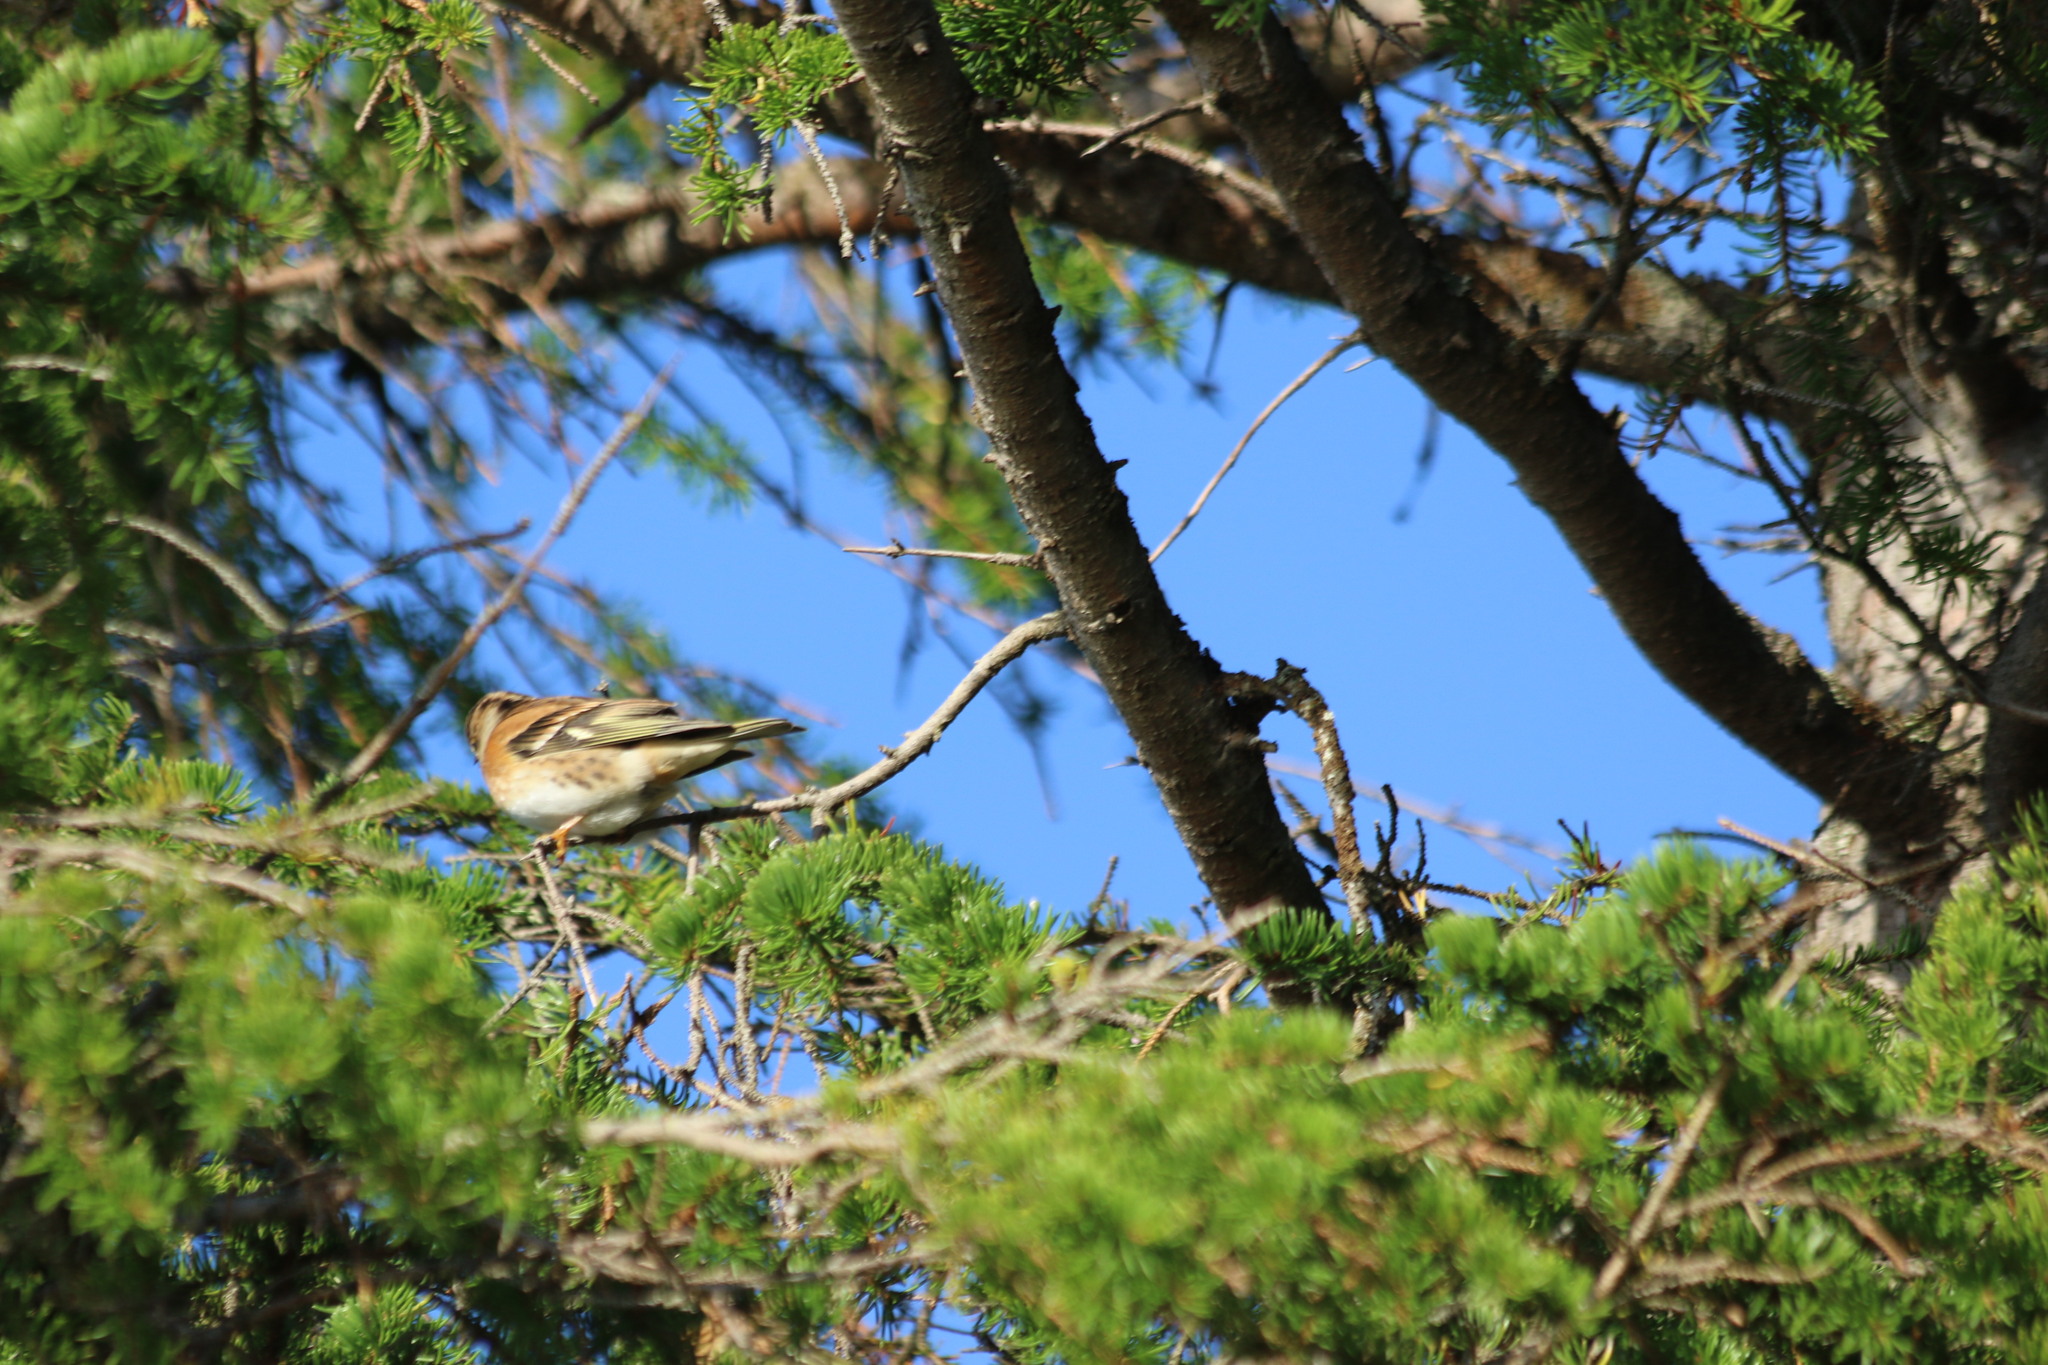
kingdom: Animalia
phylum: Chordata
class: Aves
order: Passeriformes
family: Fringillidae
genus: Fringilla
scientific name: Fringilla montifringilla
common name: Brambling
